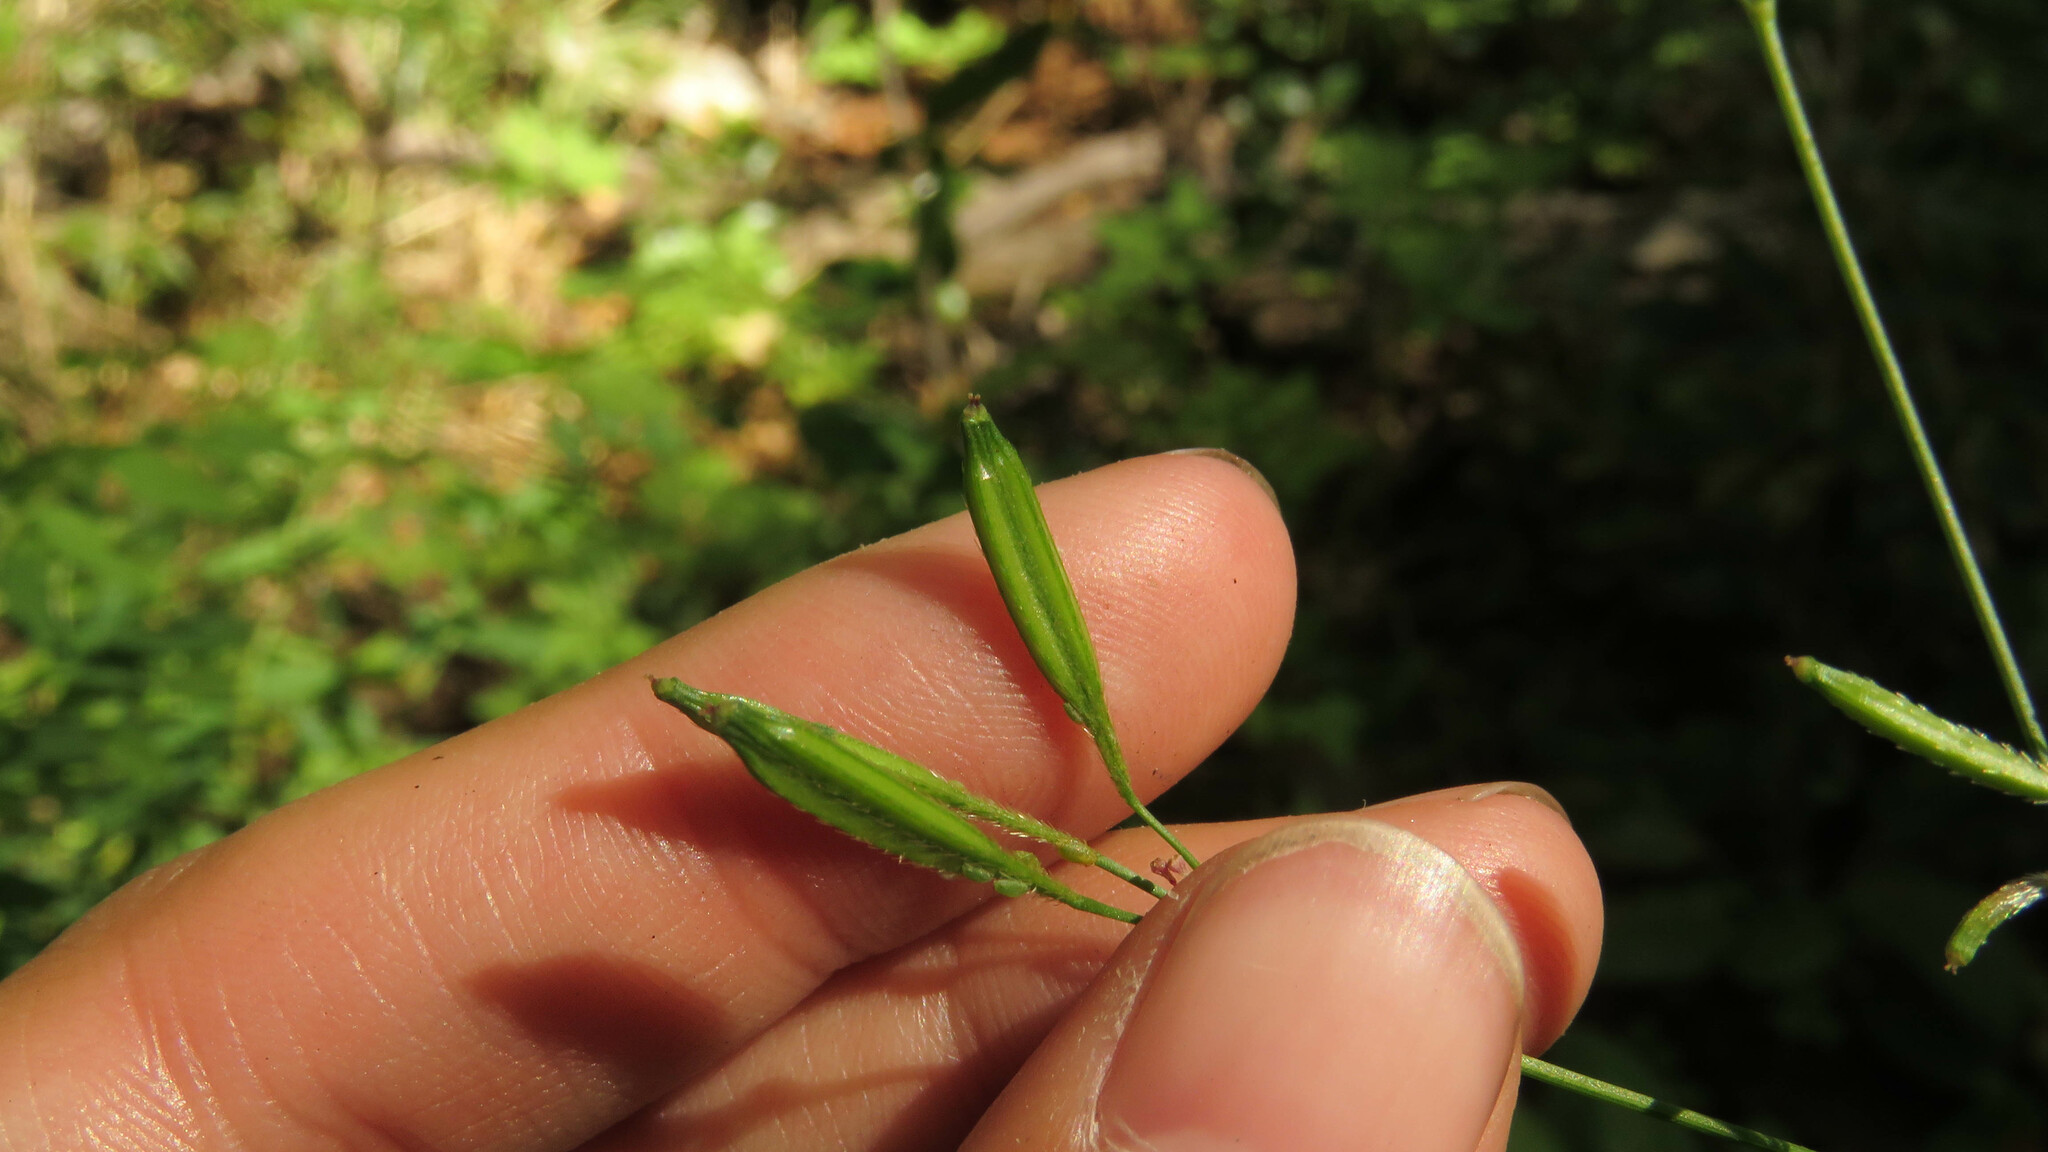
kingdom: Plantae
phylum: Tracheophyta
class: Magnoliopsida
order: Apiales
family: Apiaceae
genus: Osmorhiza
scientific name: Osmorhiza berteroi
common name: Mountain sweet cicely
